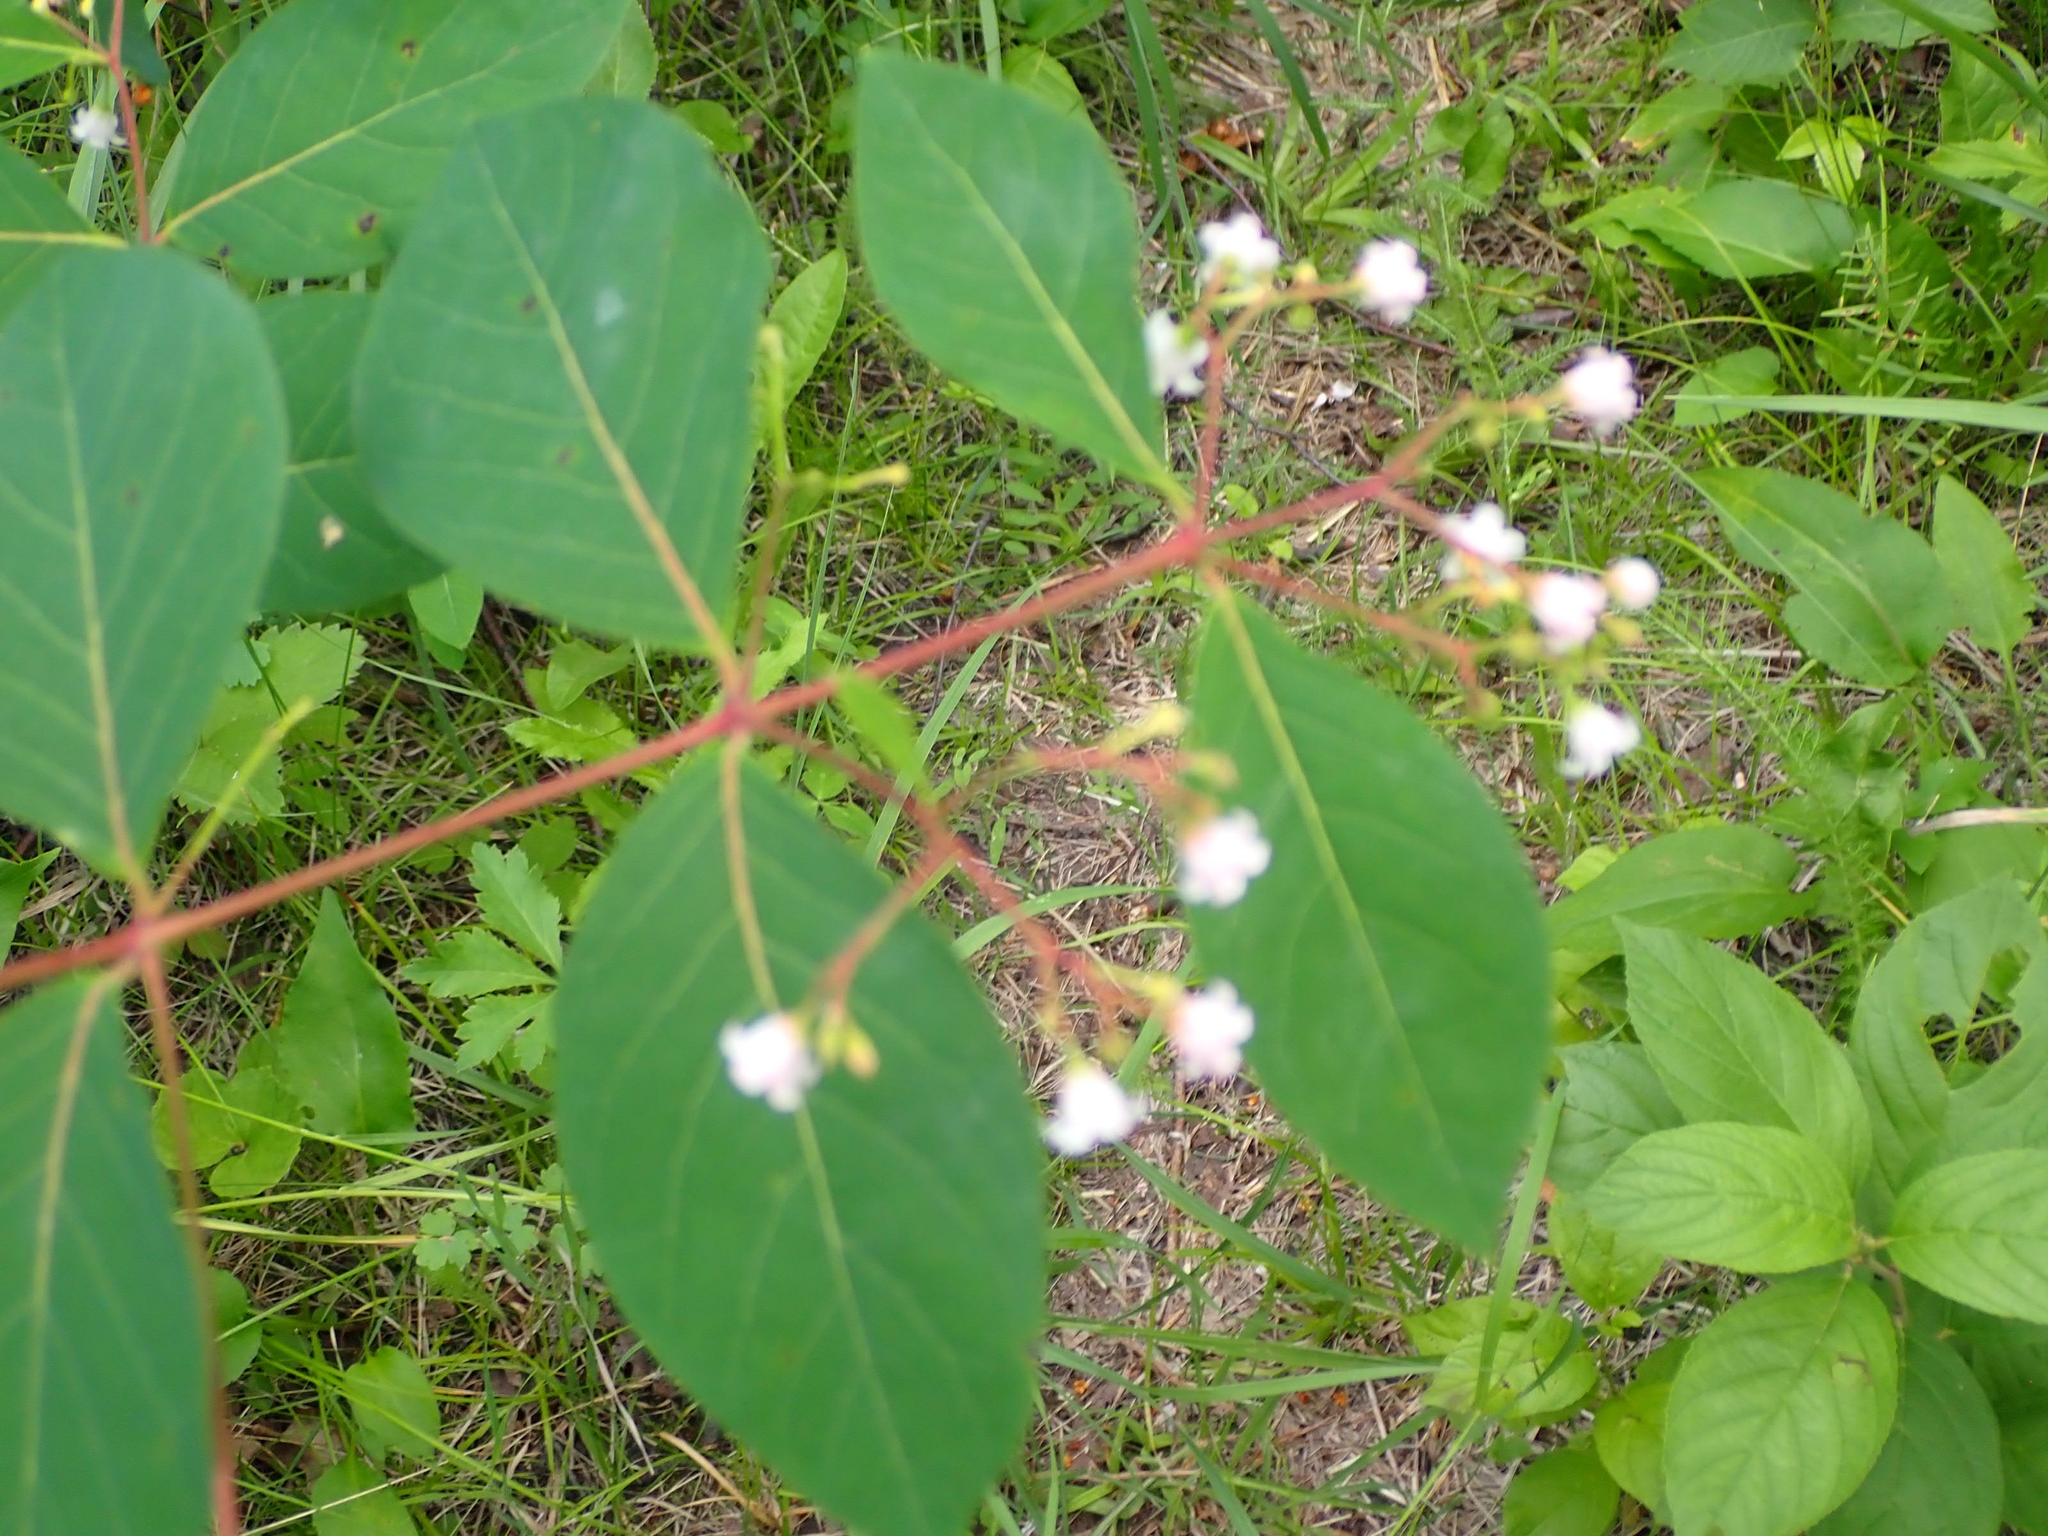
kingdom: Plantae
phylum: Tracheophyta
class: Magnoliopsida
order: Gentianales
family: Apocynaceae
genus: Apocynum
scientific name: Apocynum androsaemifolium
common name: Spreading dogbane
